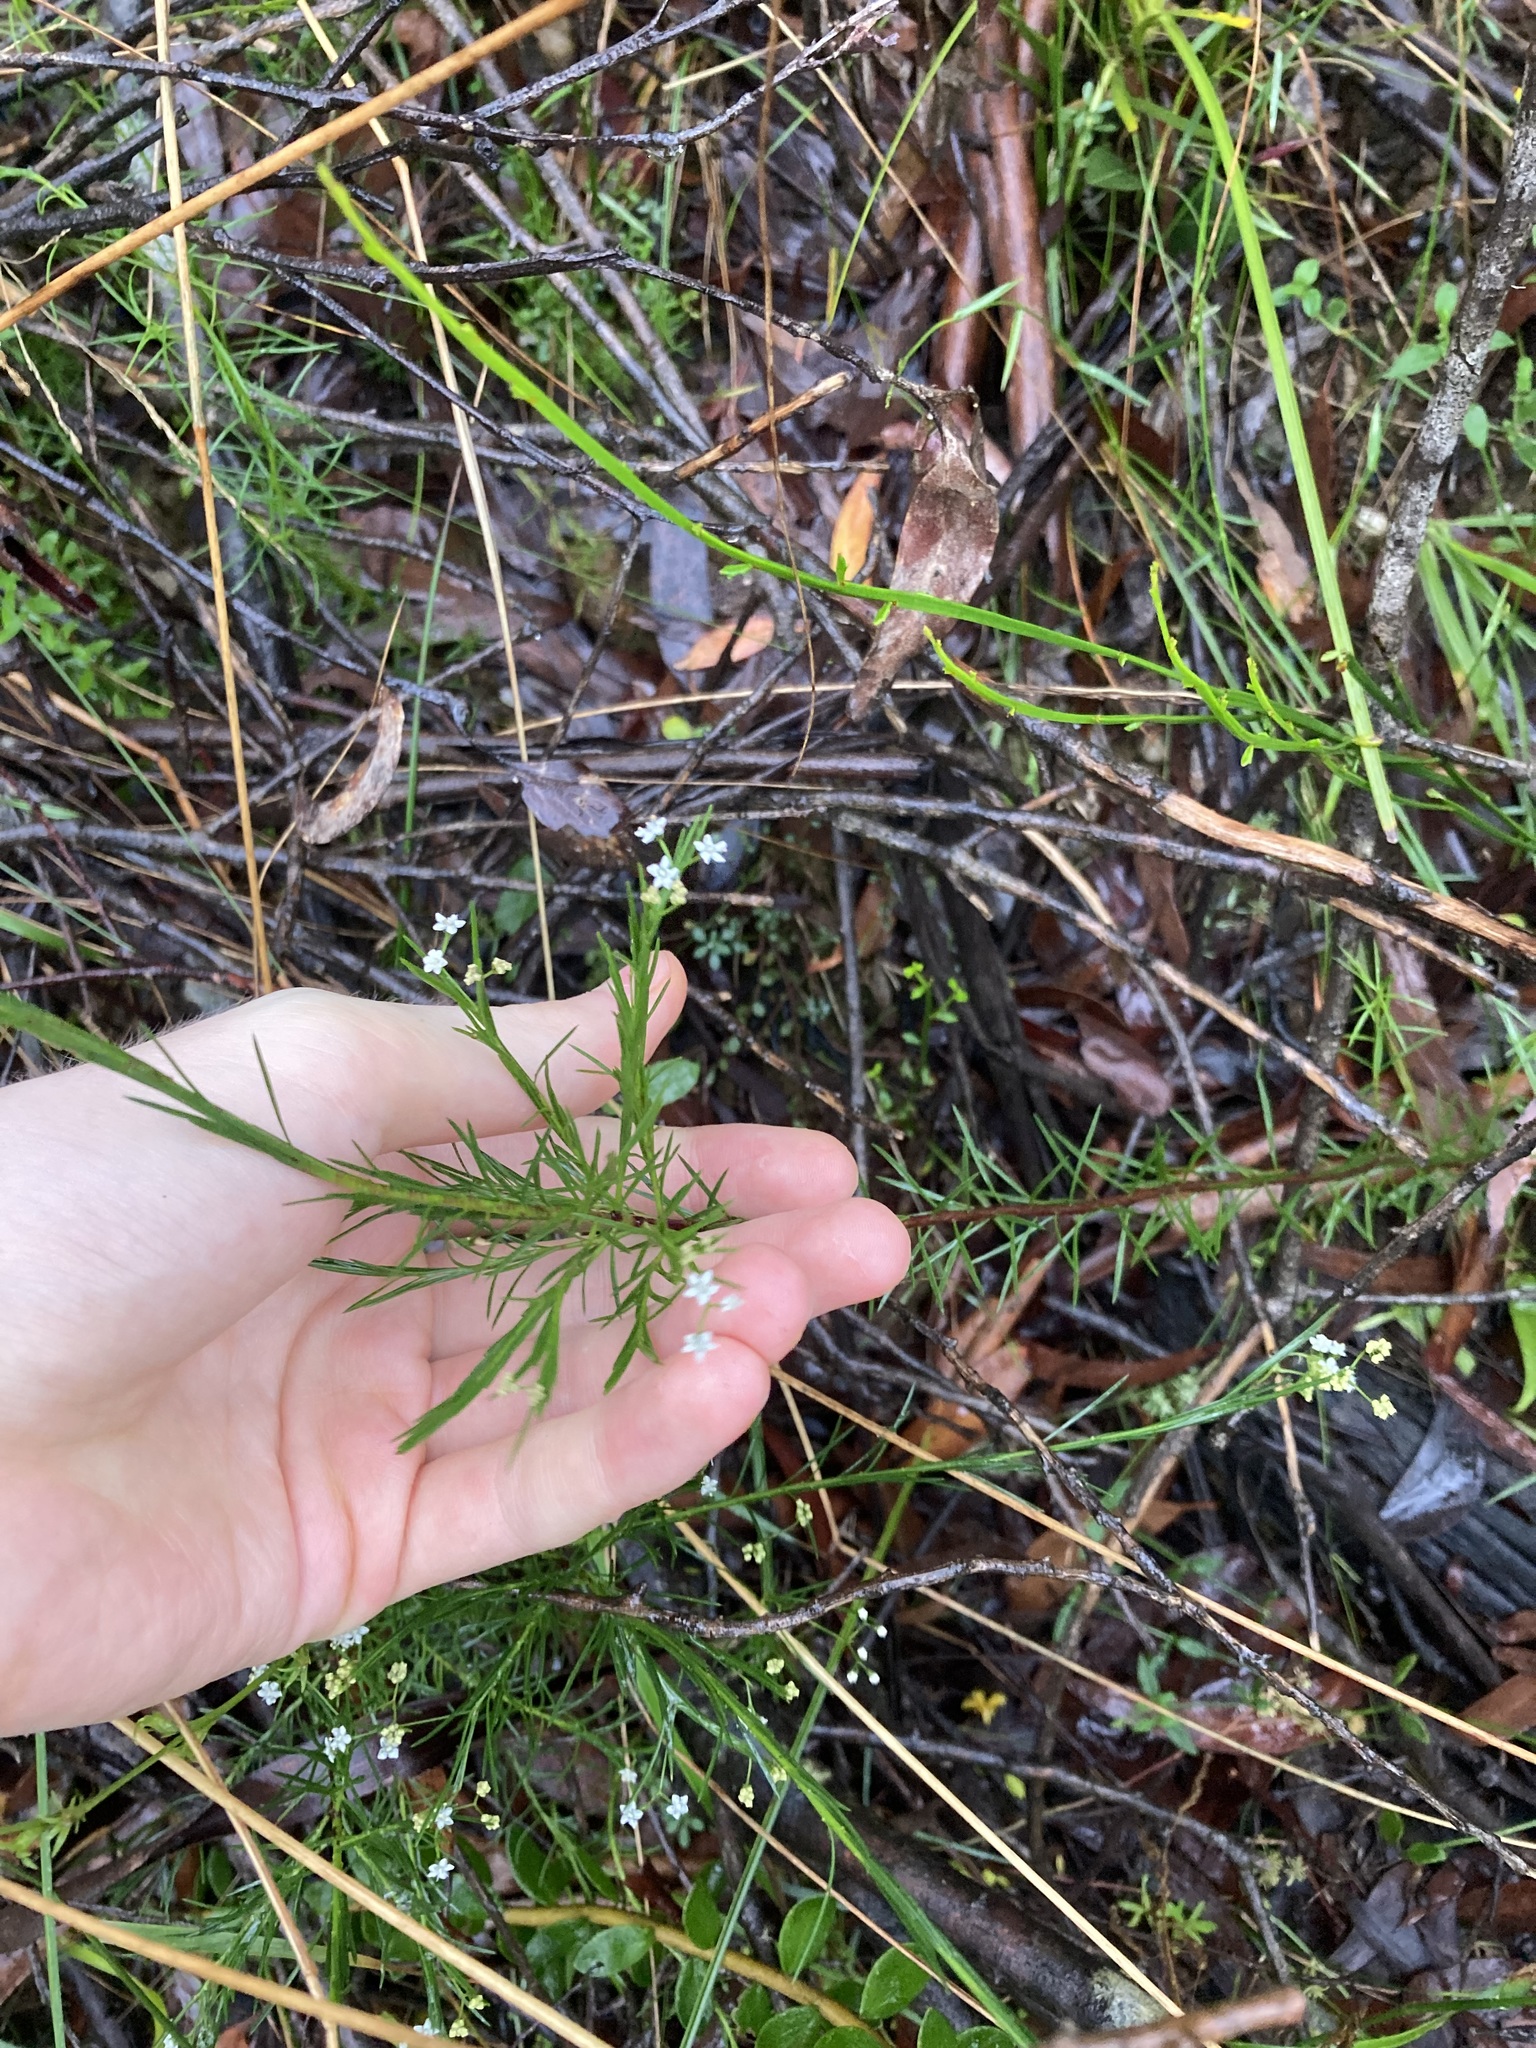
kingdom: Plantae
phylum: Tracheophyta
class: Magnoliopsida
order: Apiales
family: Apiaceae
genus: Platysace
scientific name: Platysace linearifolia
